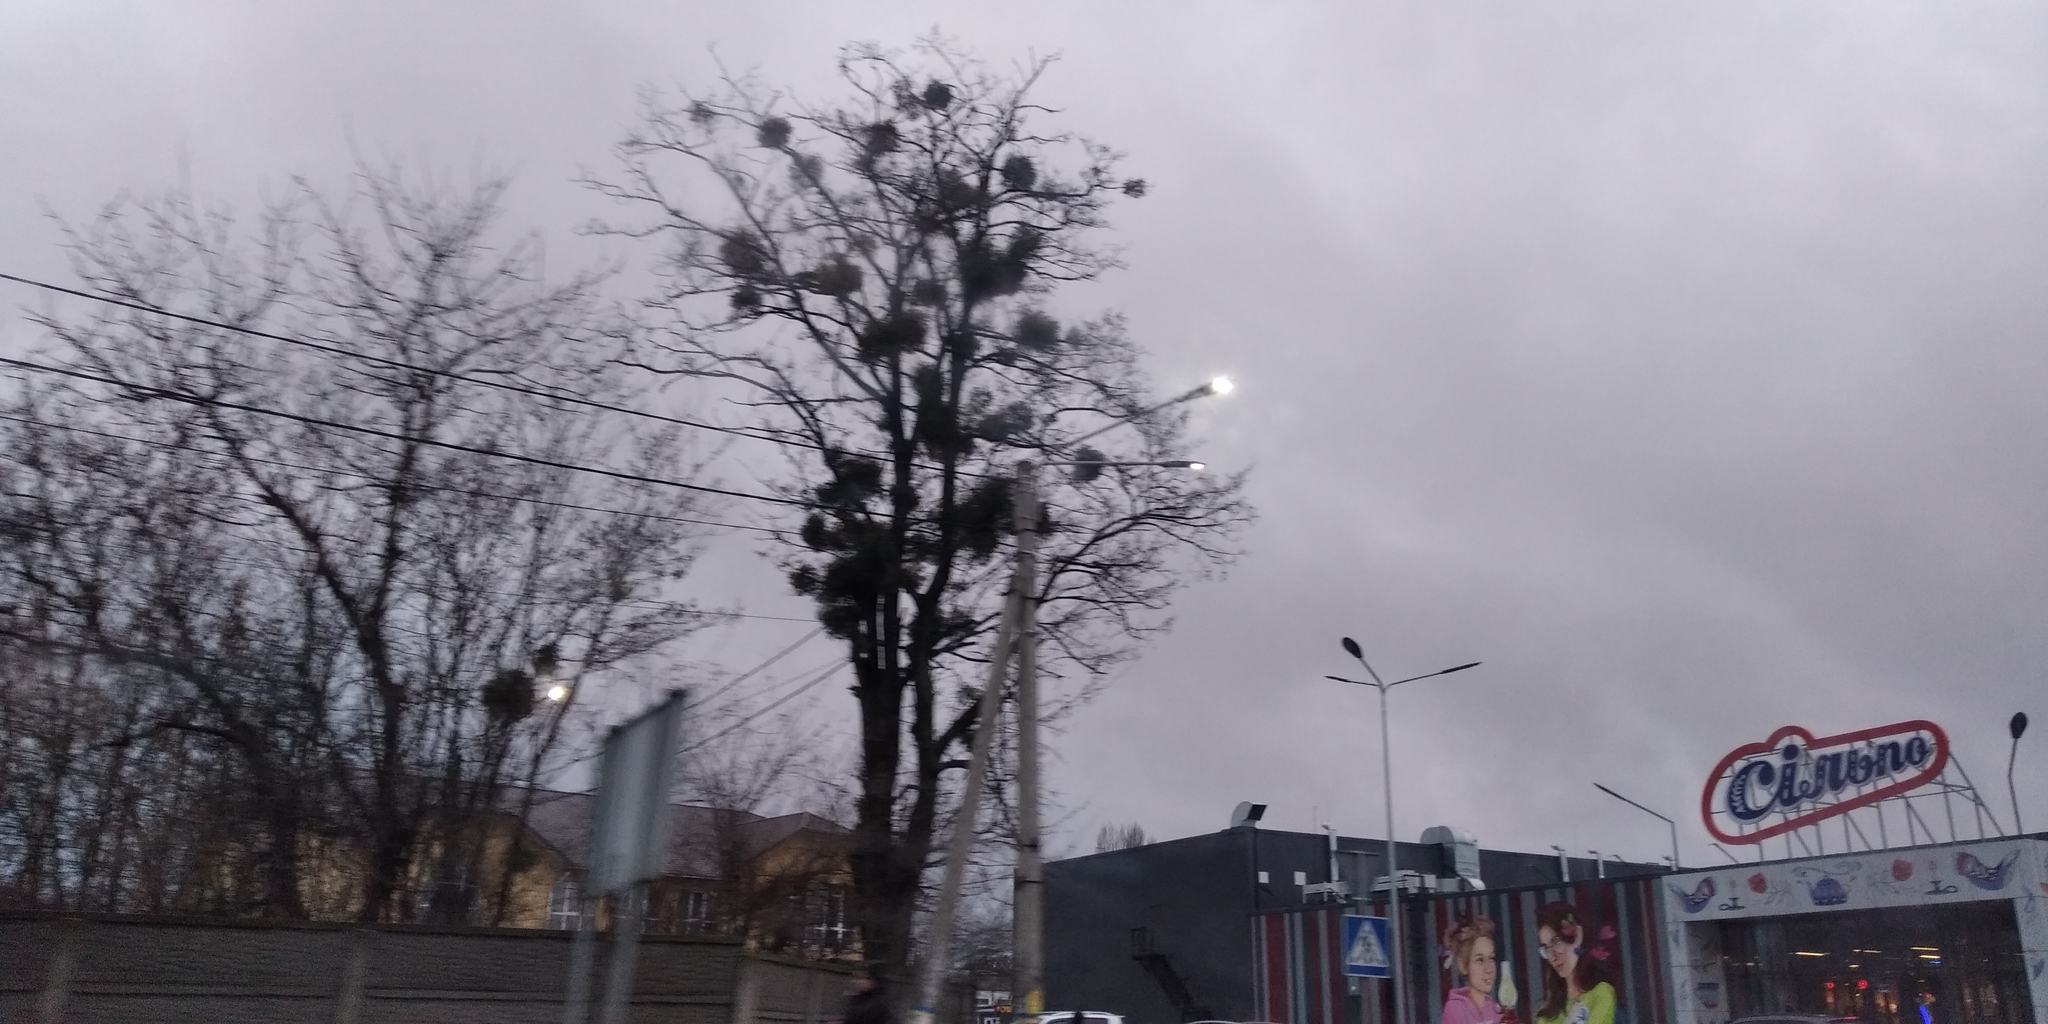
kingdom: Plantae
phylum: Tracheophyta
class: Magnoliopsida
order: Santalales
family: Viscaceae
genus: Viscum
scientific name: Viscum album
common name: Mistletoe
